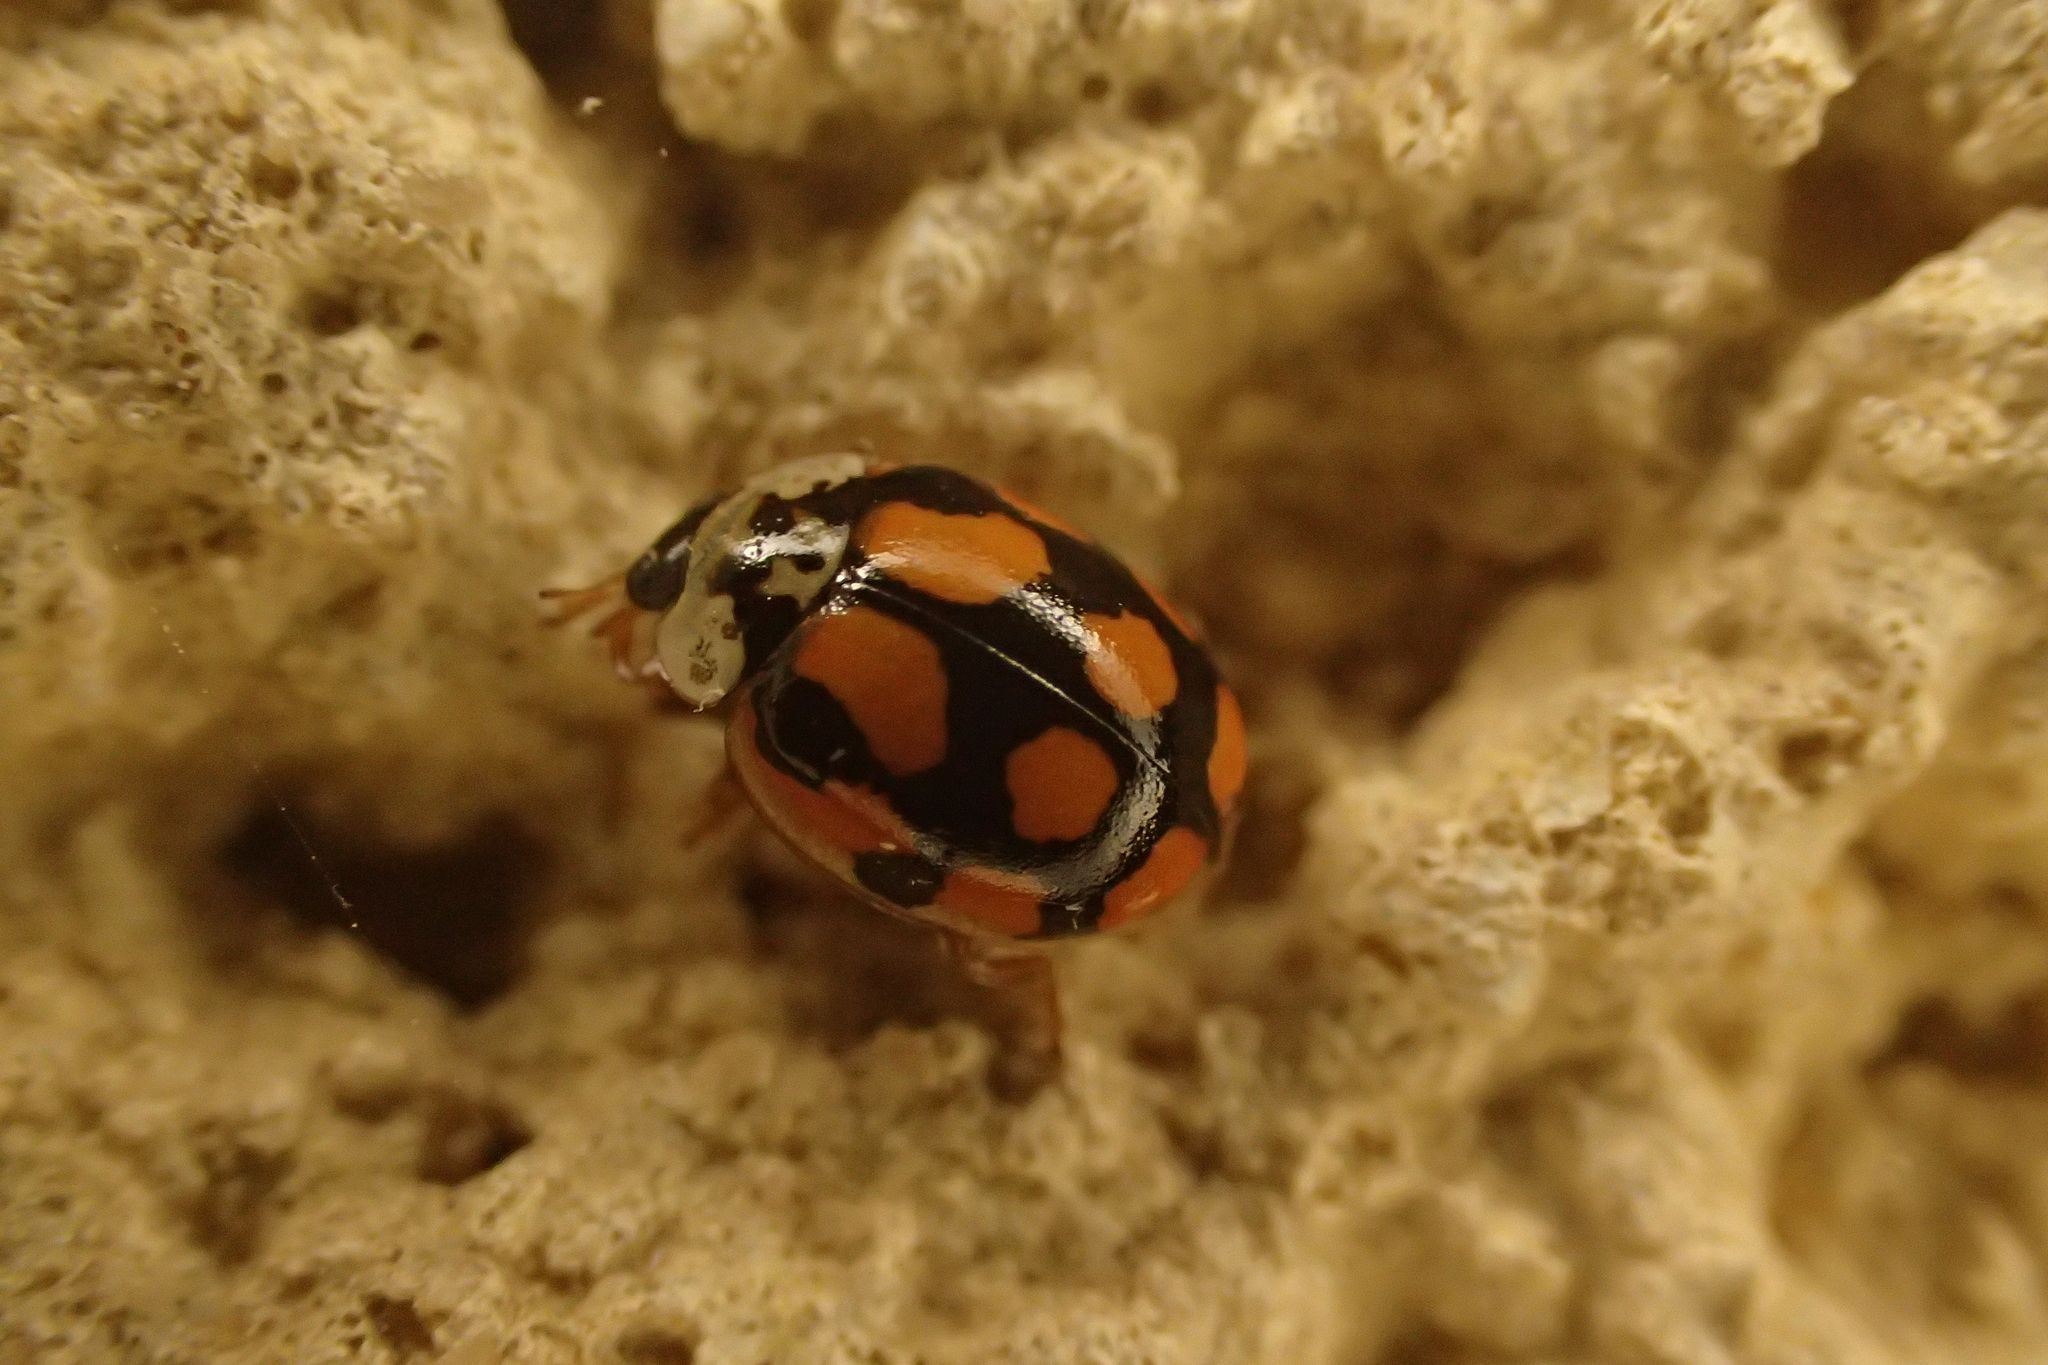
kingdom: Animalia
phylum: Arthropoda
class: Insecta
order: Coleoptera
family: Coccinellidae
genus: Adalia
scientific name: Adalia decempunctata
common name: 10-spot ladybird
